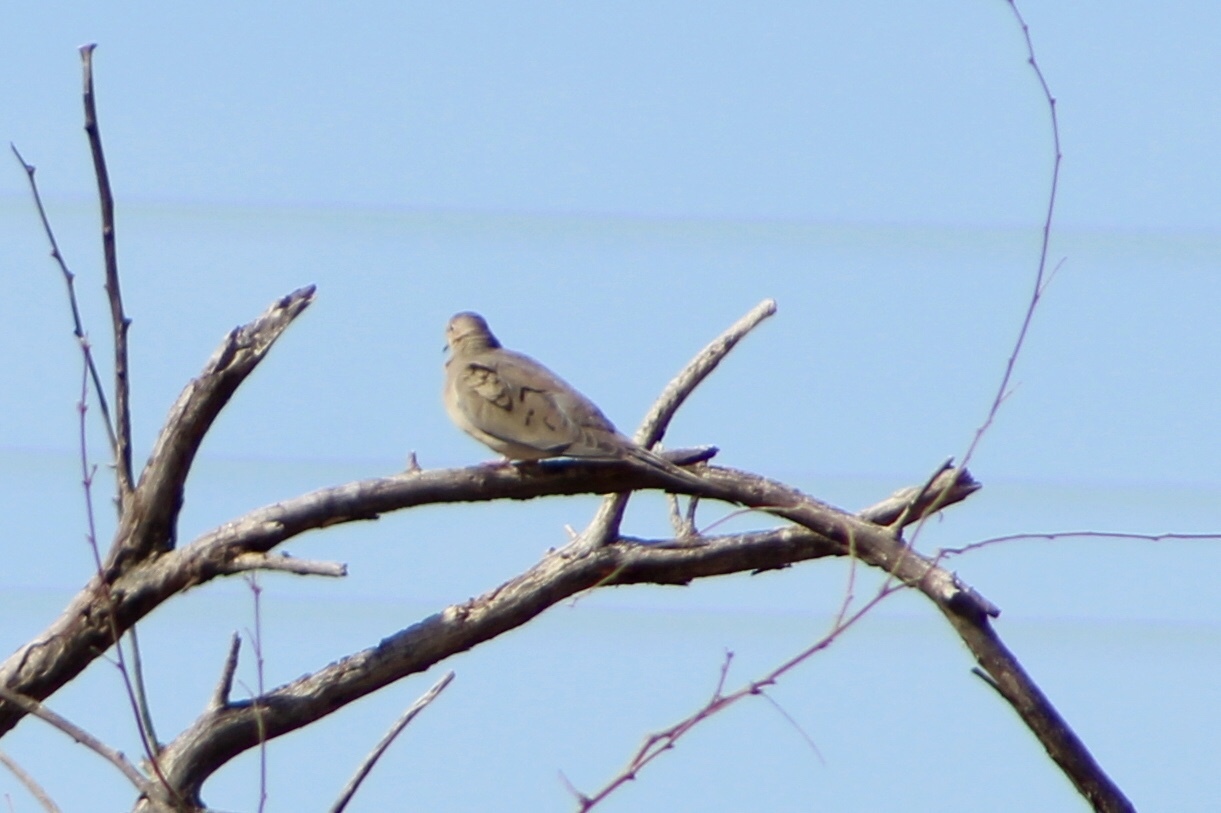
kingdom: Animalia
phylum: Chordata
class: Aves
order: Columbiformes
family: Columbidae
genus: Zenaida
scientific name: Zenaida macroura
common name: Mourning dove
